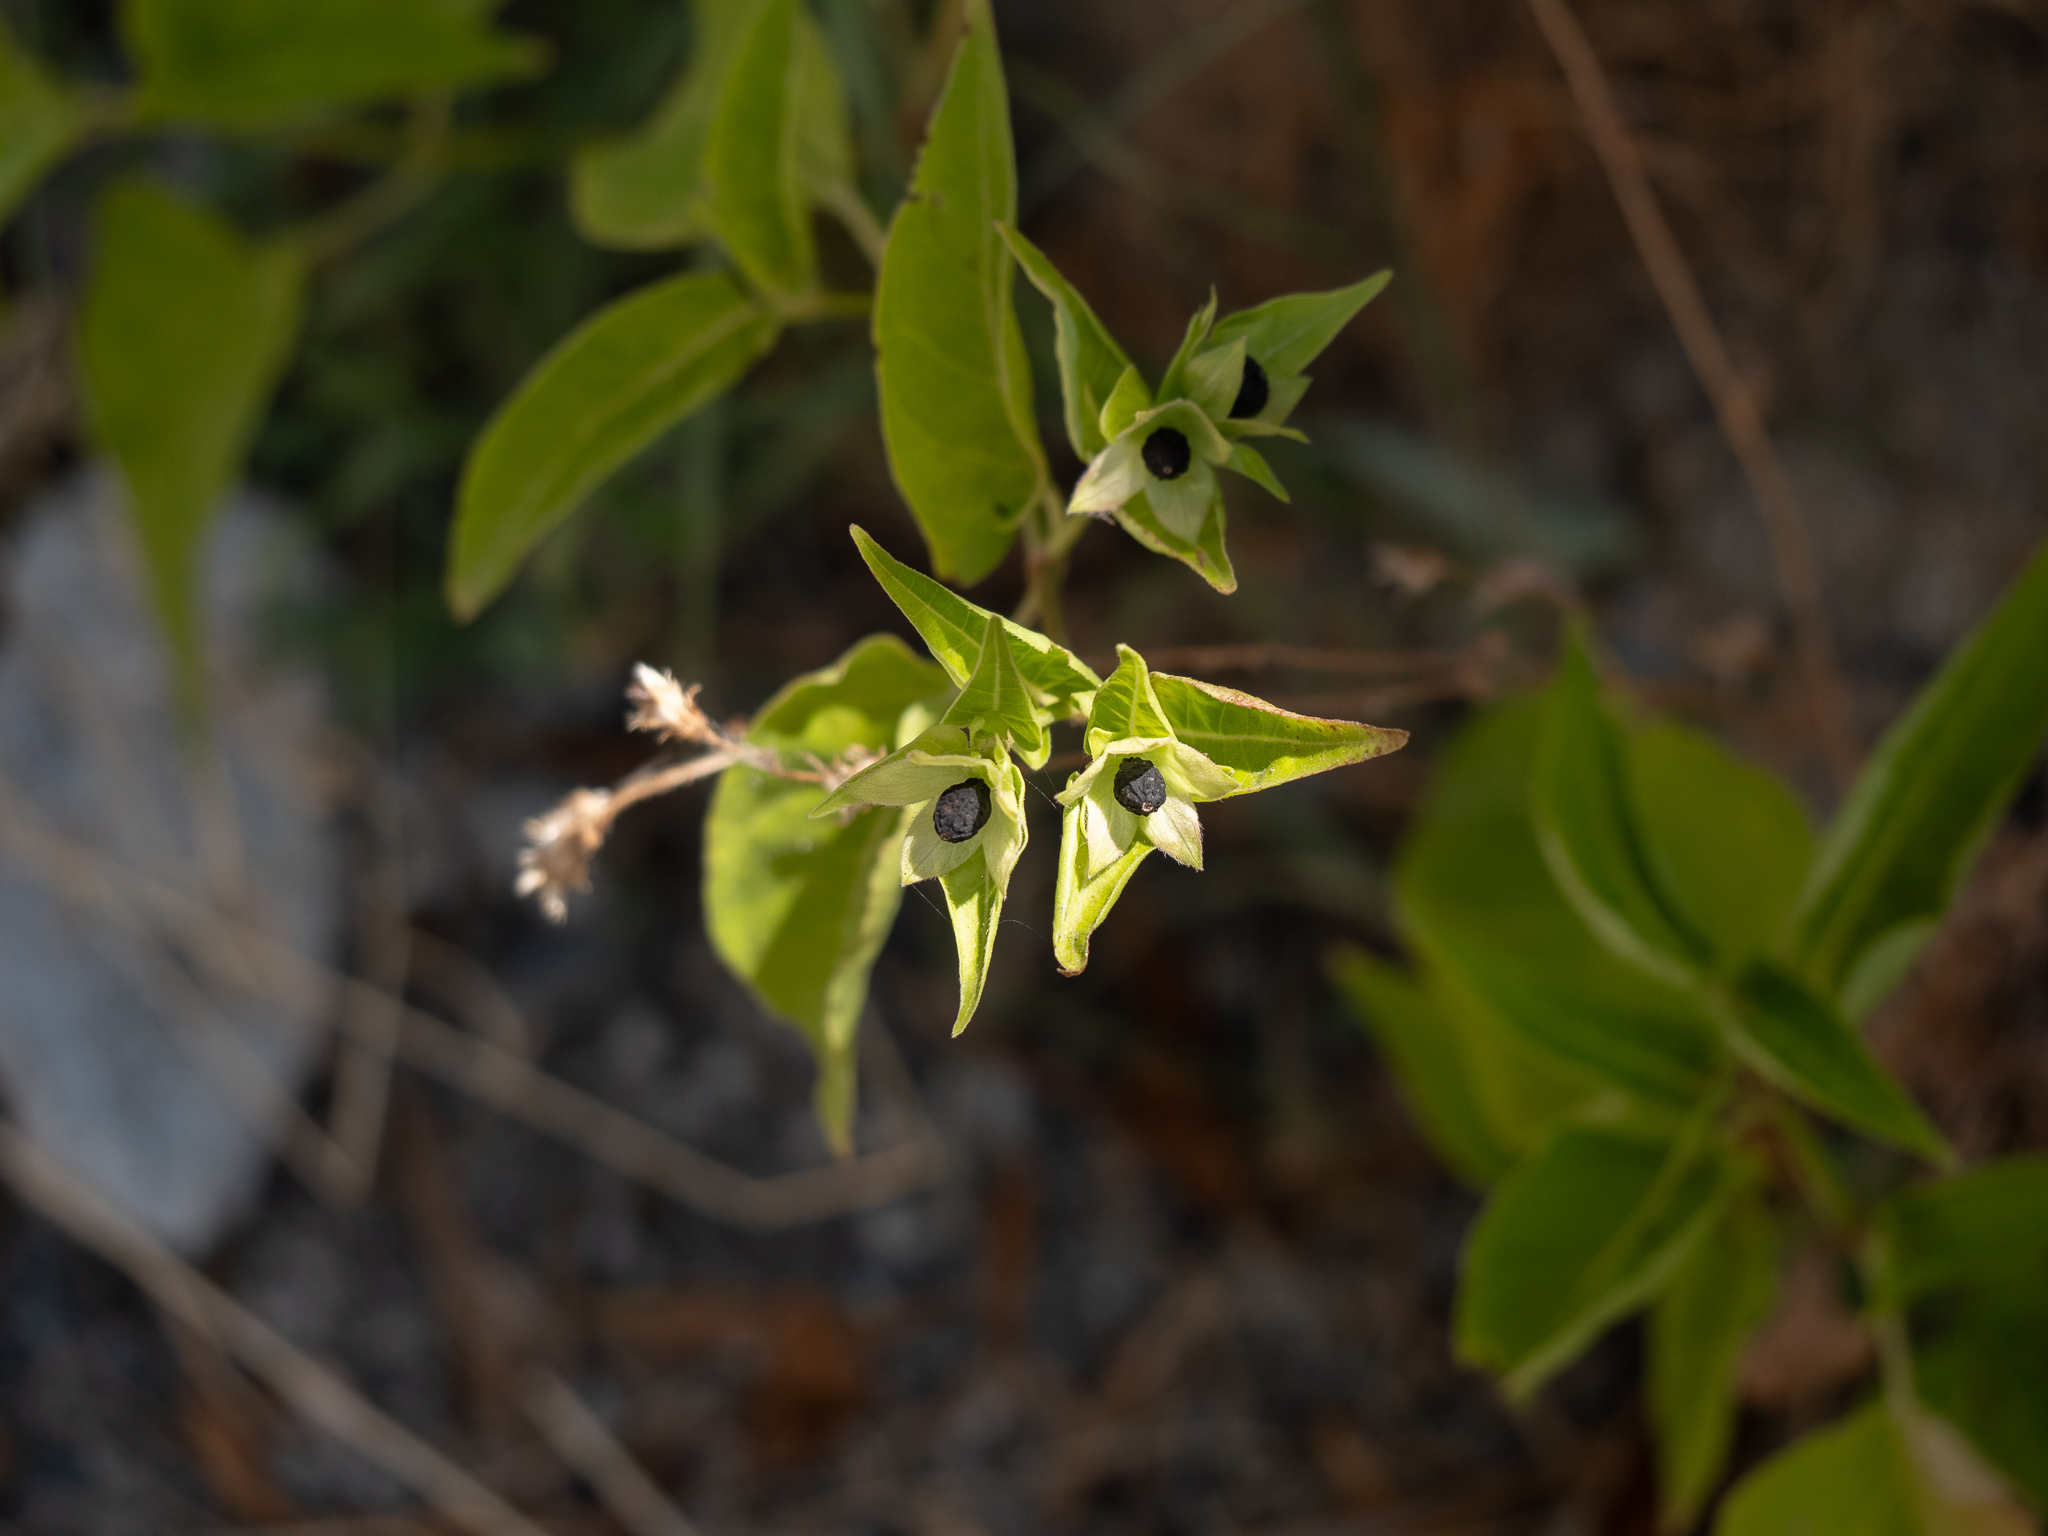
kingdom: Plantae
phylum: Tracheophyta
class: Magnoliopsida
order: Caryophyllales
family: Nyctaginaceae
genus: Mirabilis
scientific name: Mirabilis jalapa
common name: Marvel-of-peru
